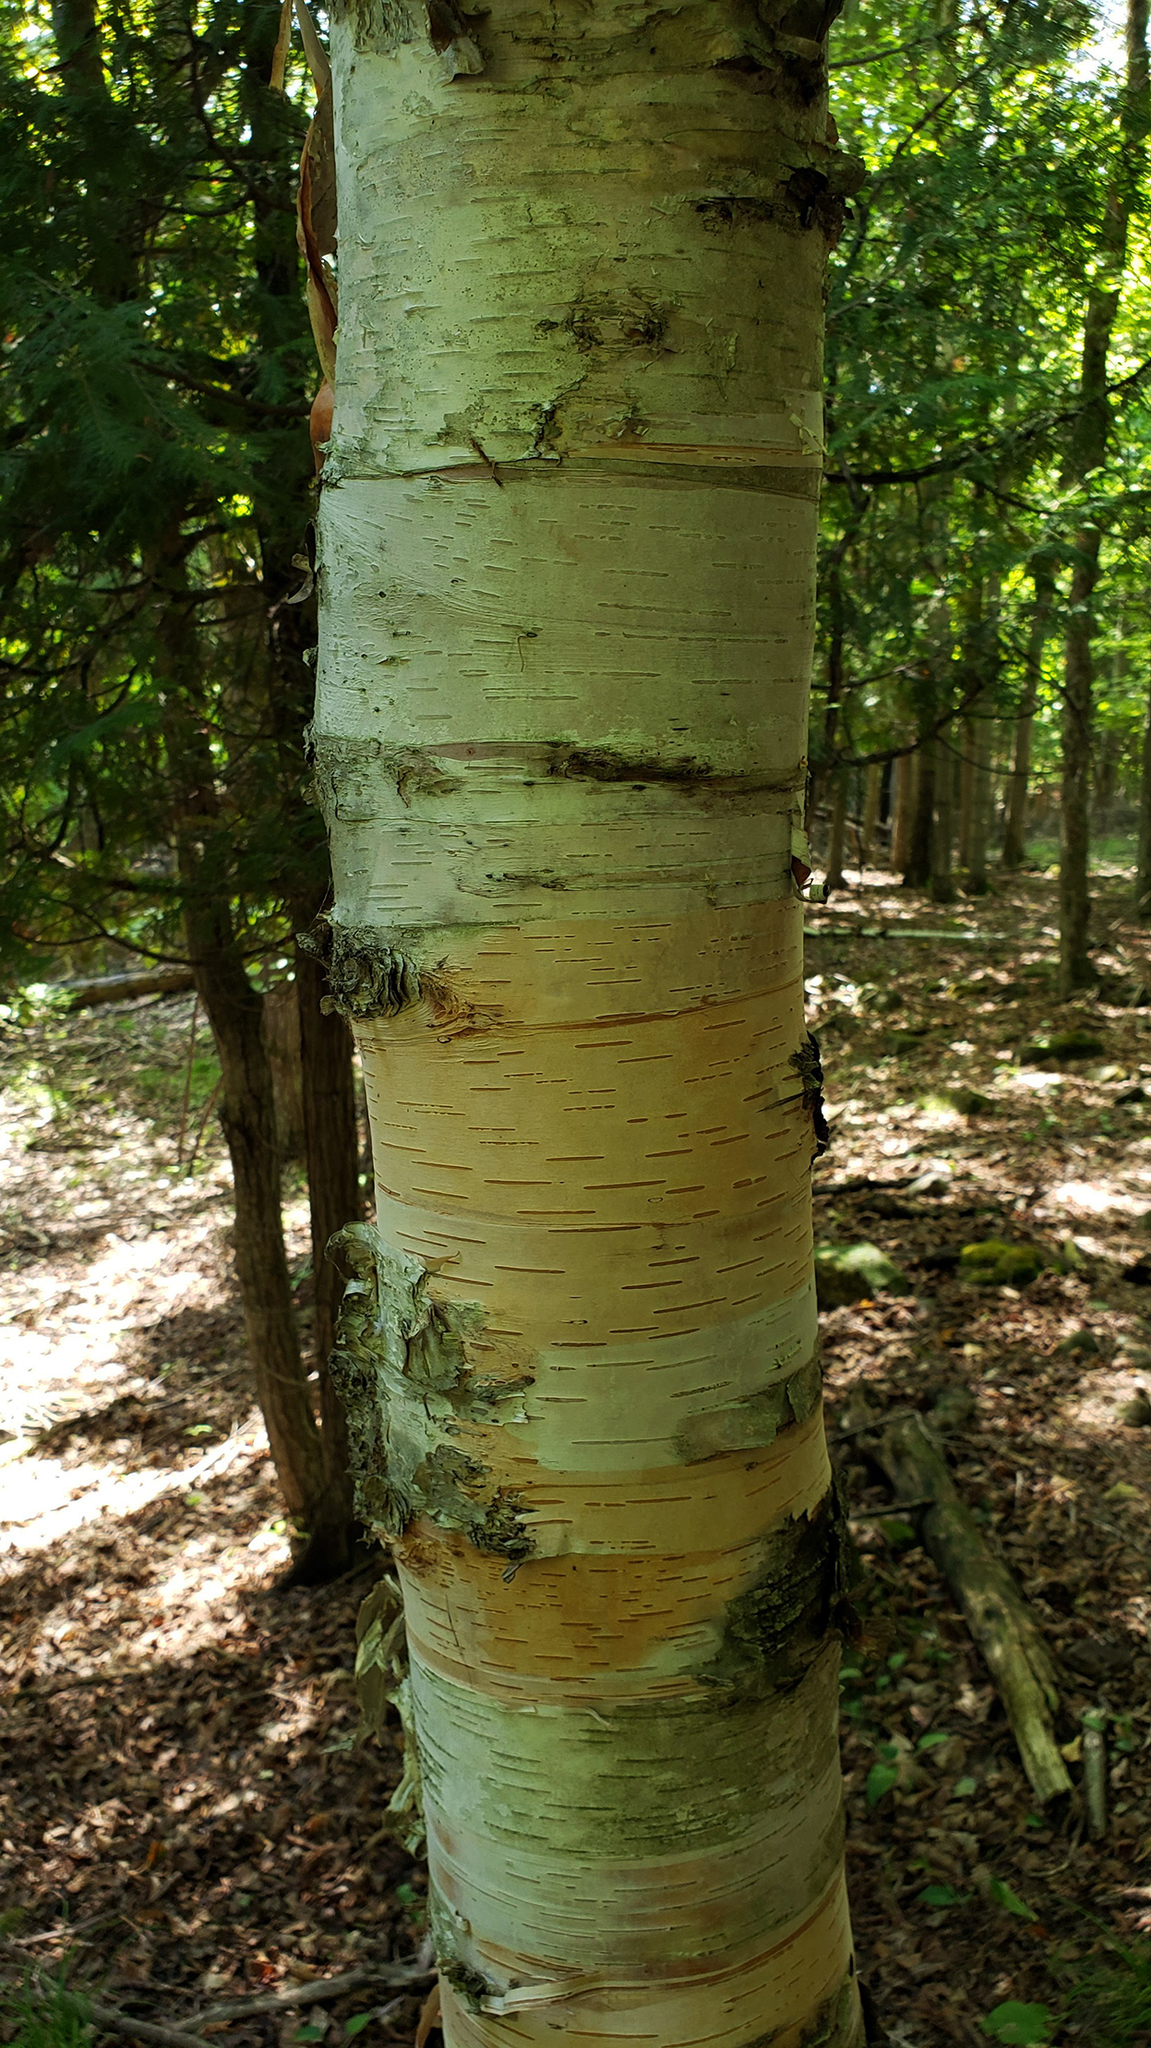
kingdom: Plantae
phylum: Tracheophyta
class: Magnoliopsida
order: Fagales
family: Betulaceae
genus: Betula
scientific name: Betula papyrifera
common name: Paper birch
